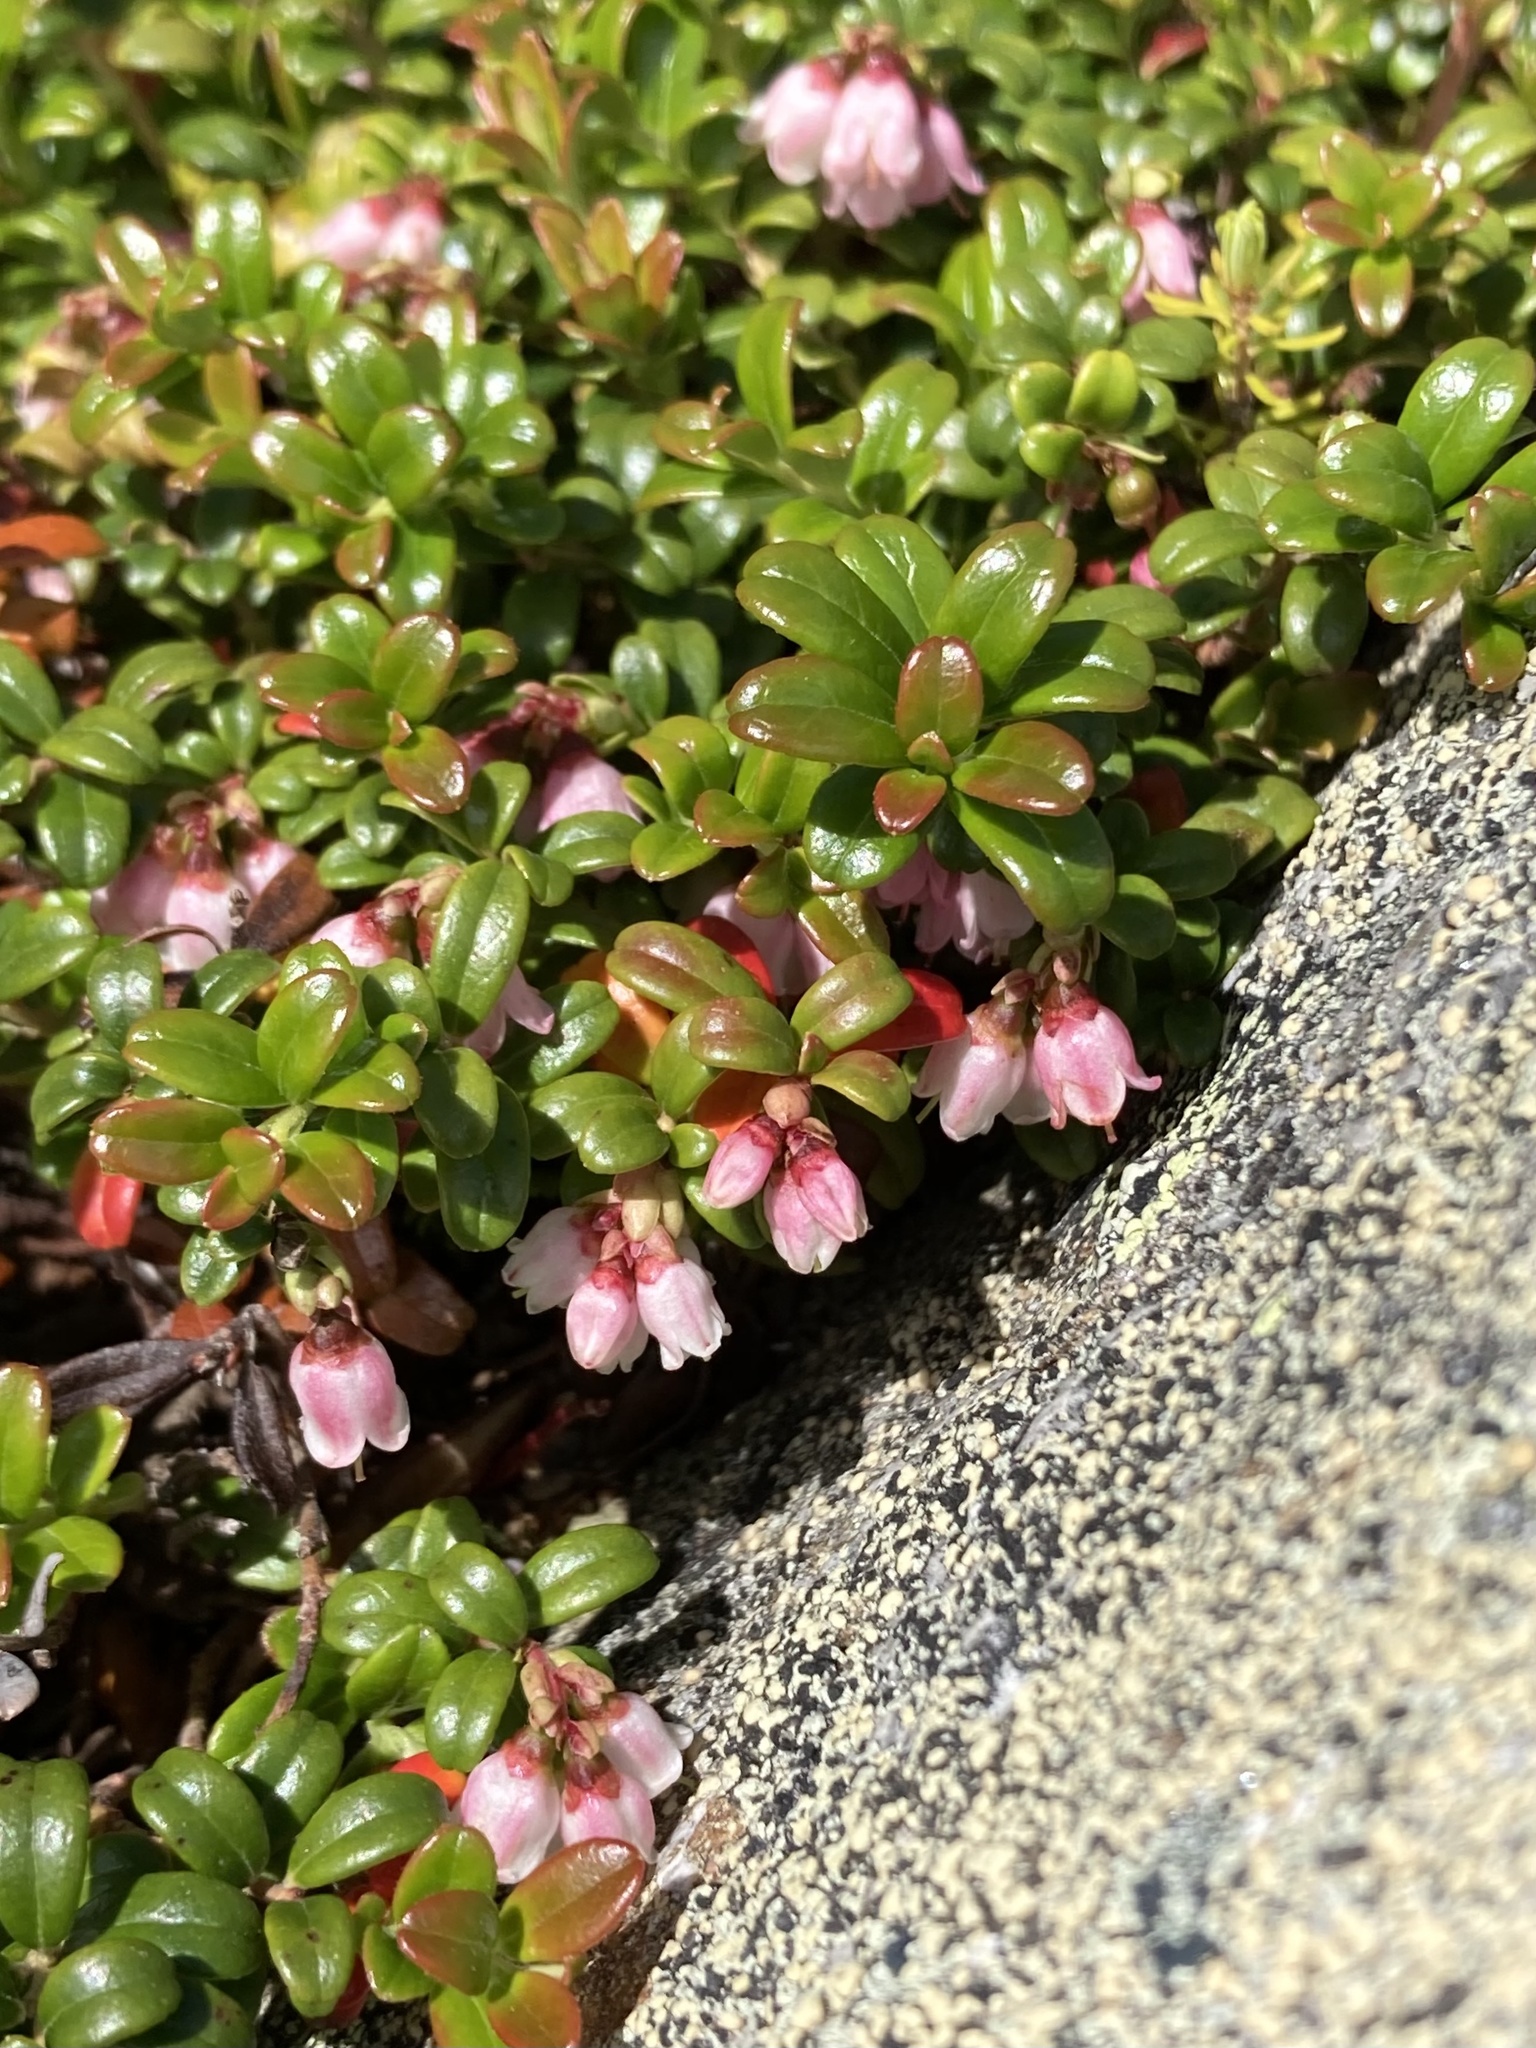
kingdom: Plantae
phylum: Tracheophyta
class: Magnoliopsida
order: Ericales
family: Ericaceae
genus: Vaccinium
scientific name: Vaccinium vitis-idaea
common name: Cowberry
